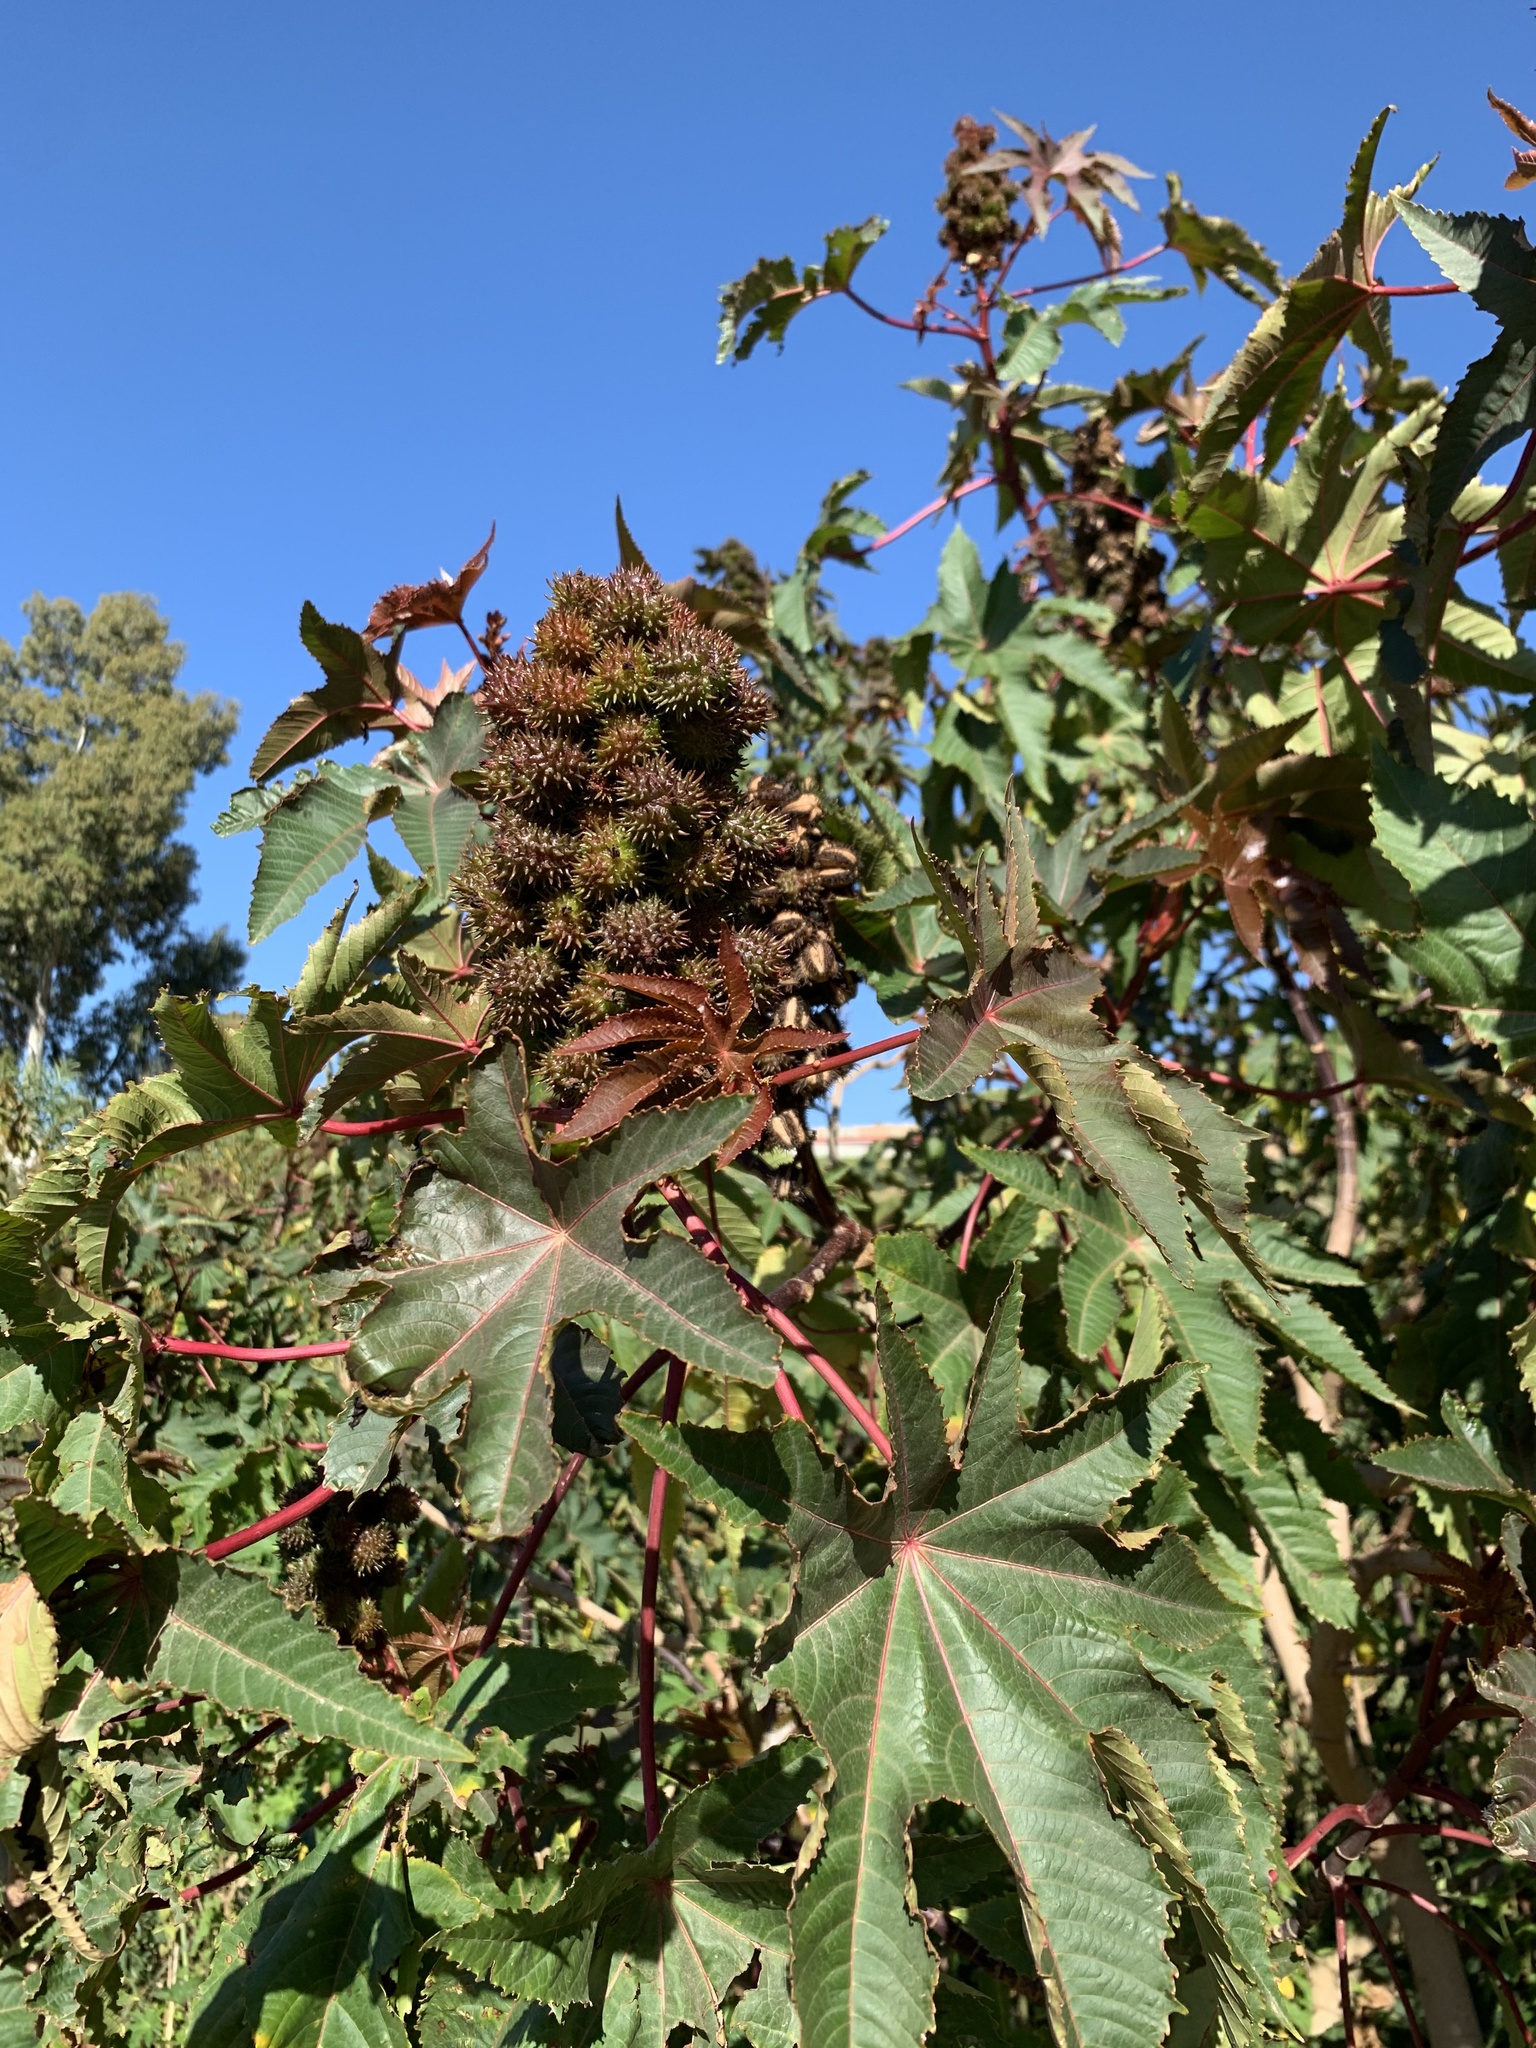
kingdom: Plantae
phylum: Tracheophyta
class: Magnoliopsida
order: Malpighiales
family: Euphorbiaceae
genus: Ricinus
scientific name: Ricinus communis
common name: Castor-oil-plant
